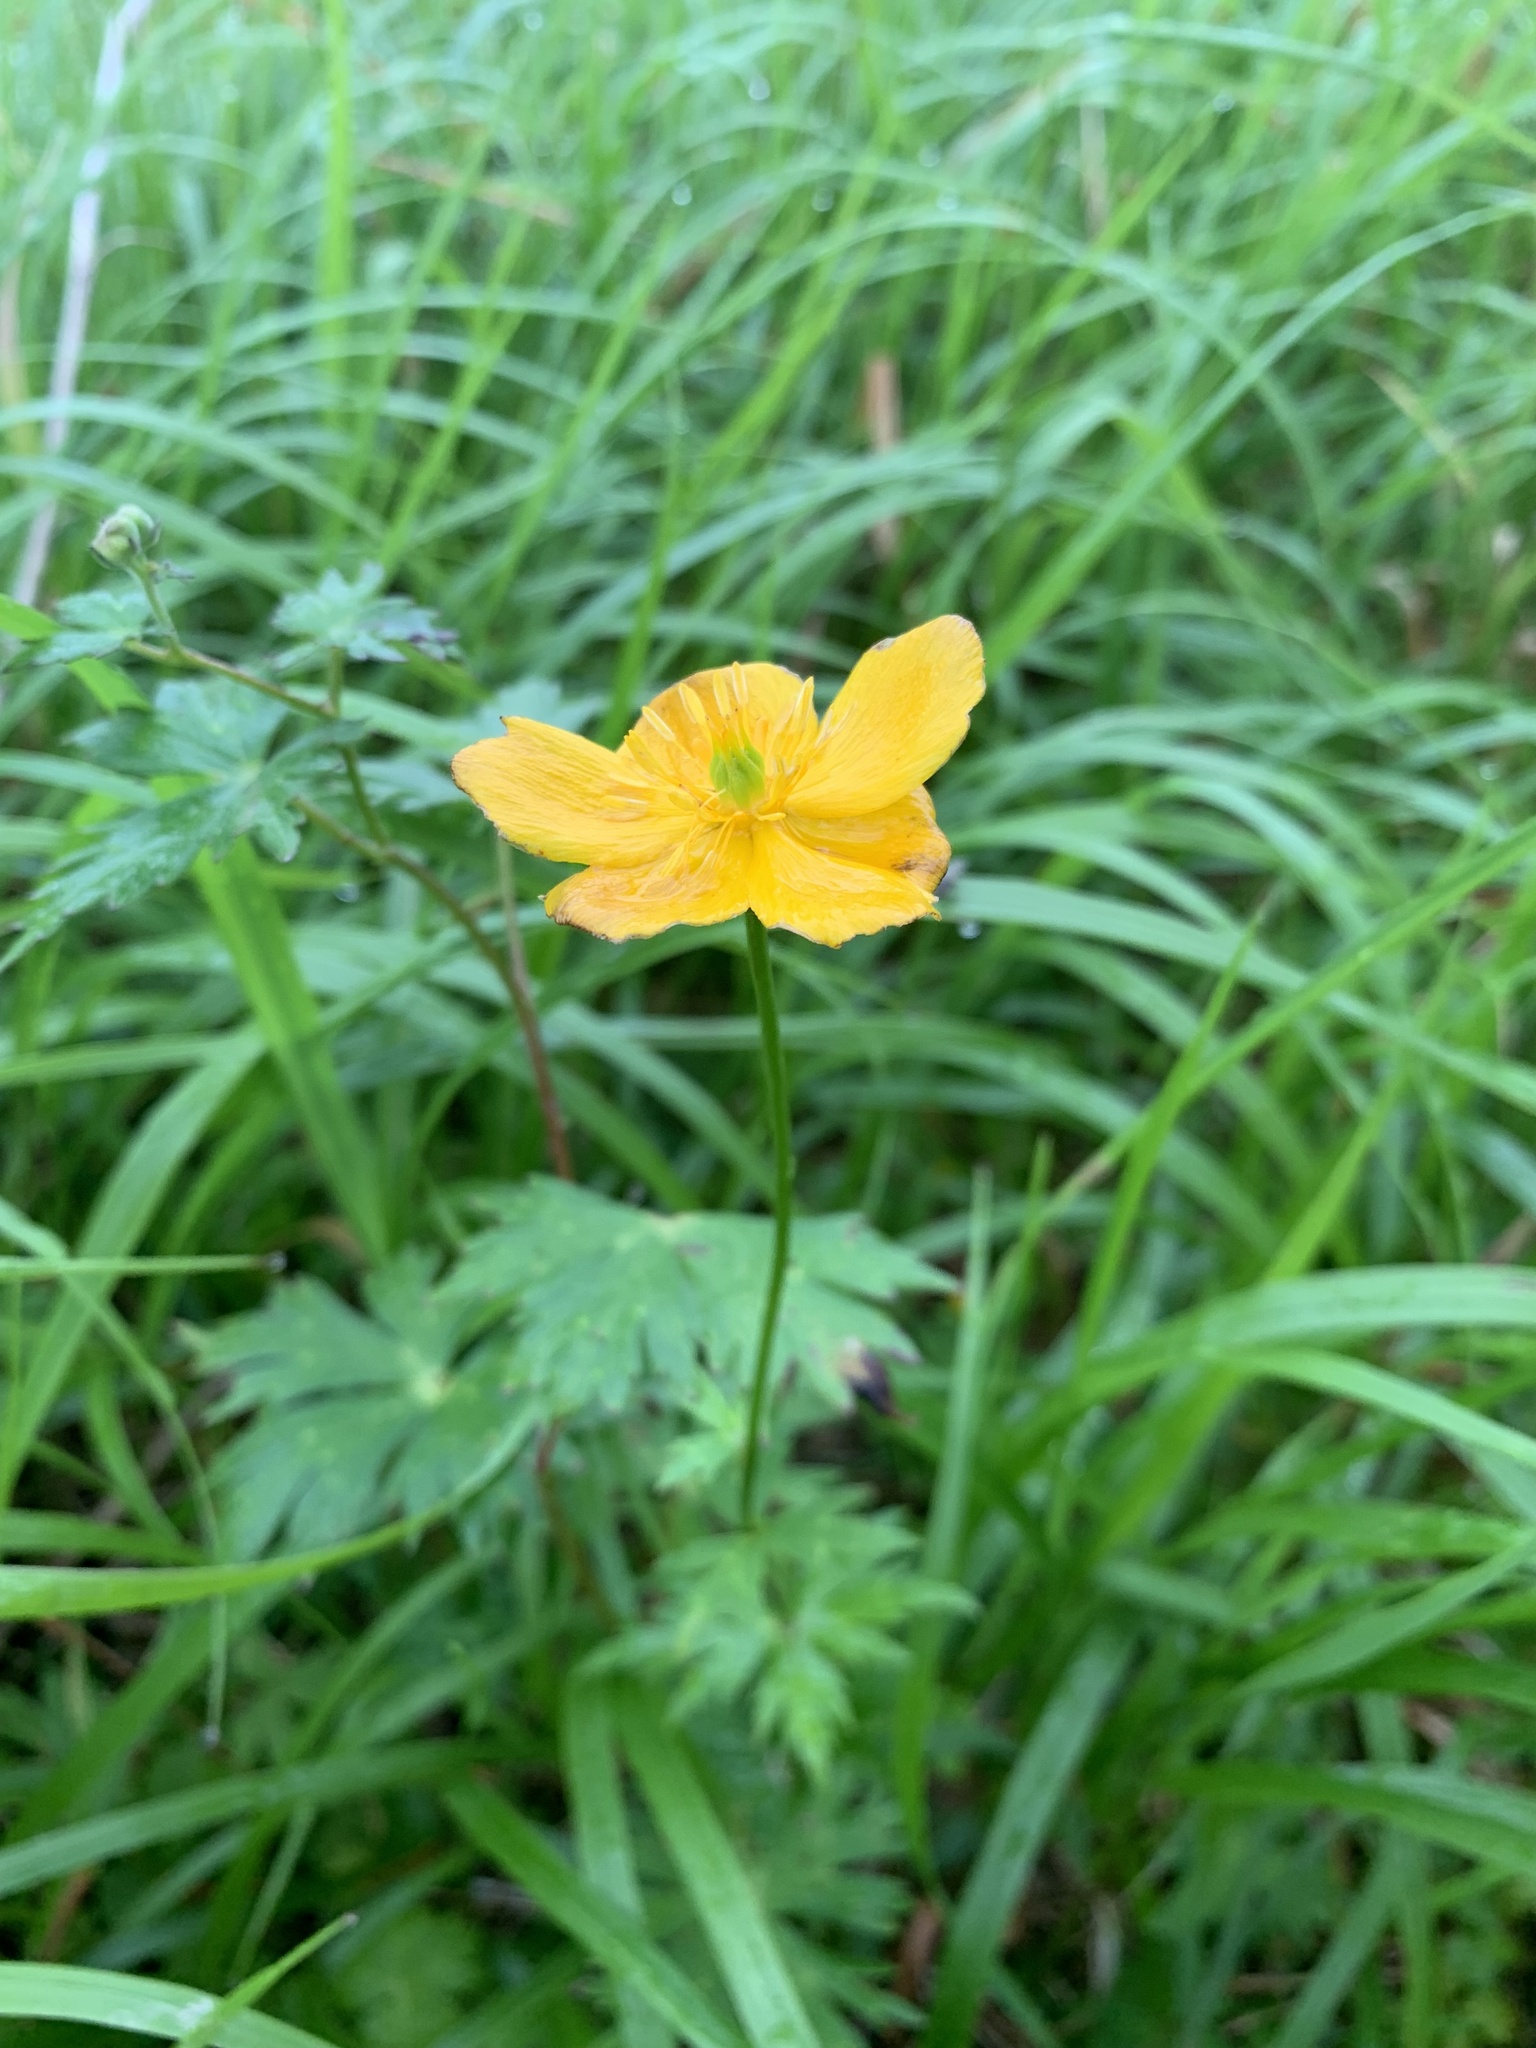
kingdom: Plantae
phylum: Tracheophyta
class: Magnoliopsida
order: Ranunculales
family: Ranunculaceae
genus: Trollius
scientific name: Trollius shinanensis
